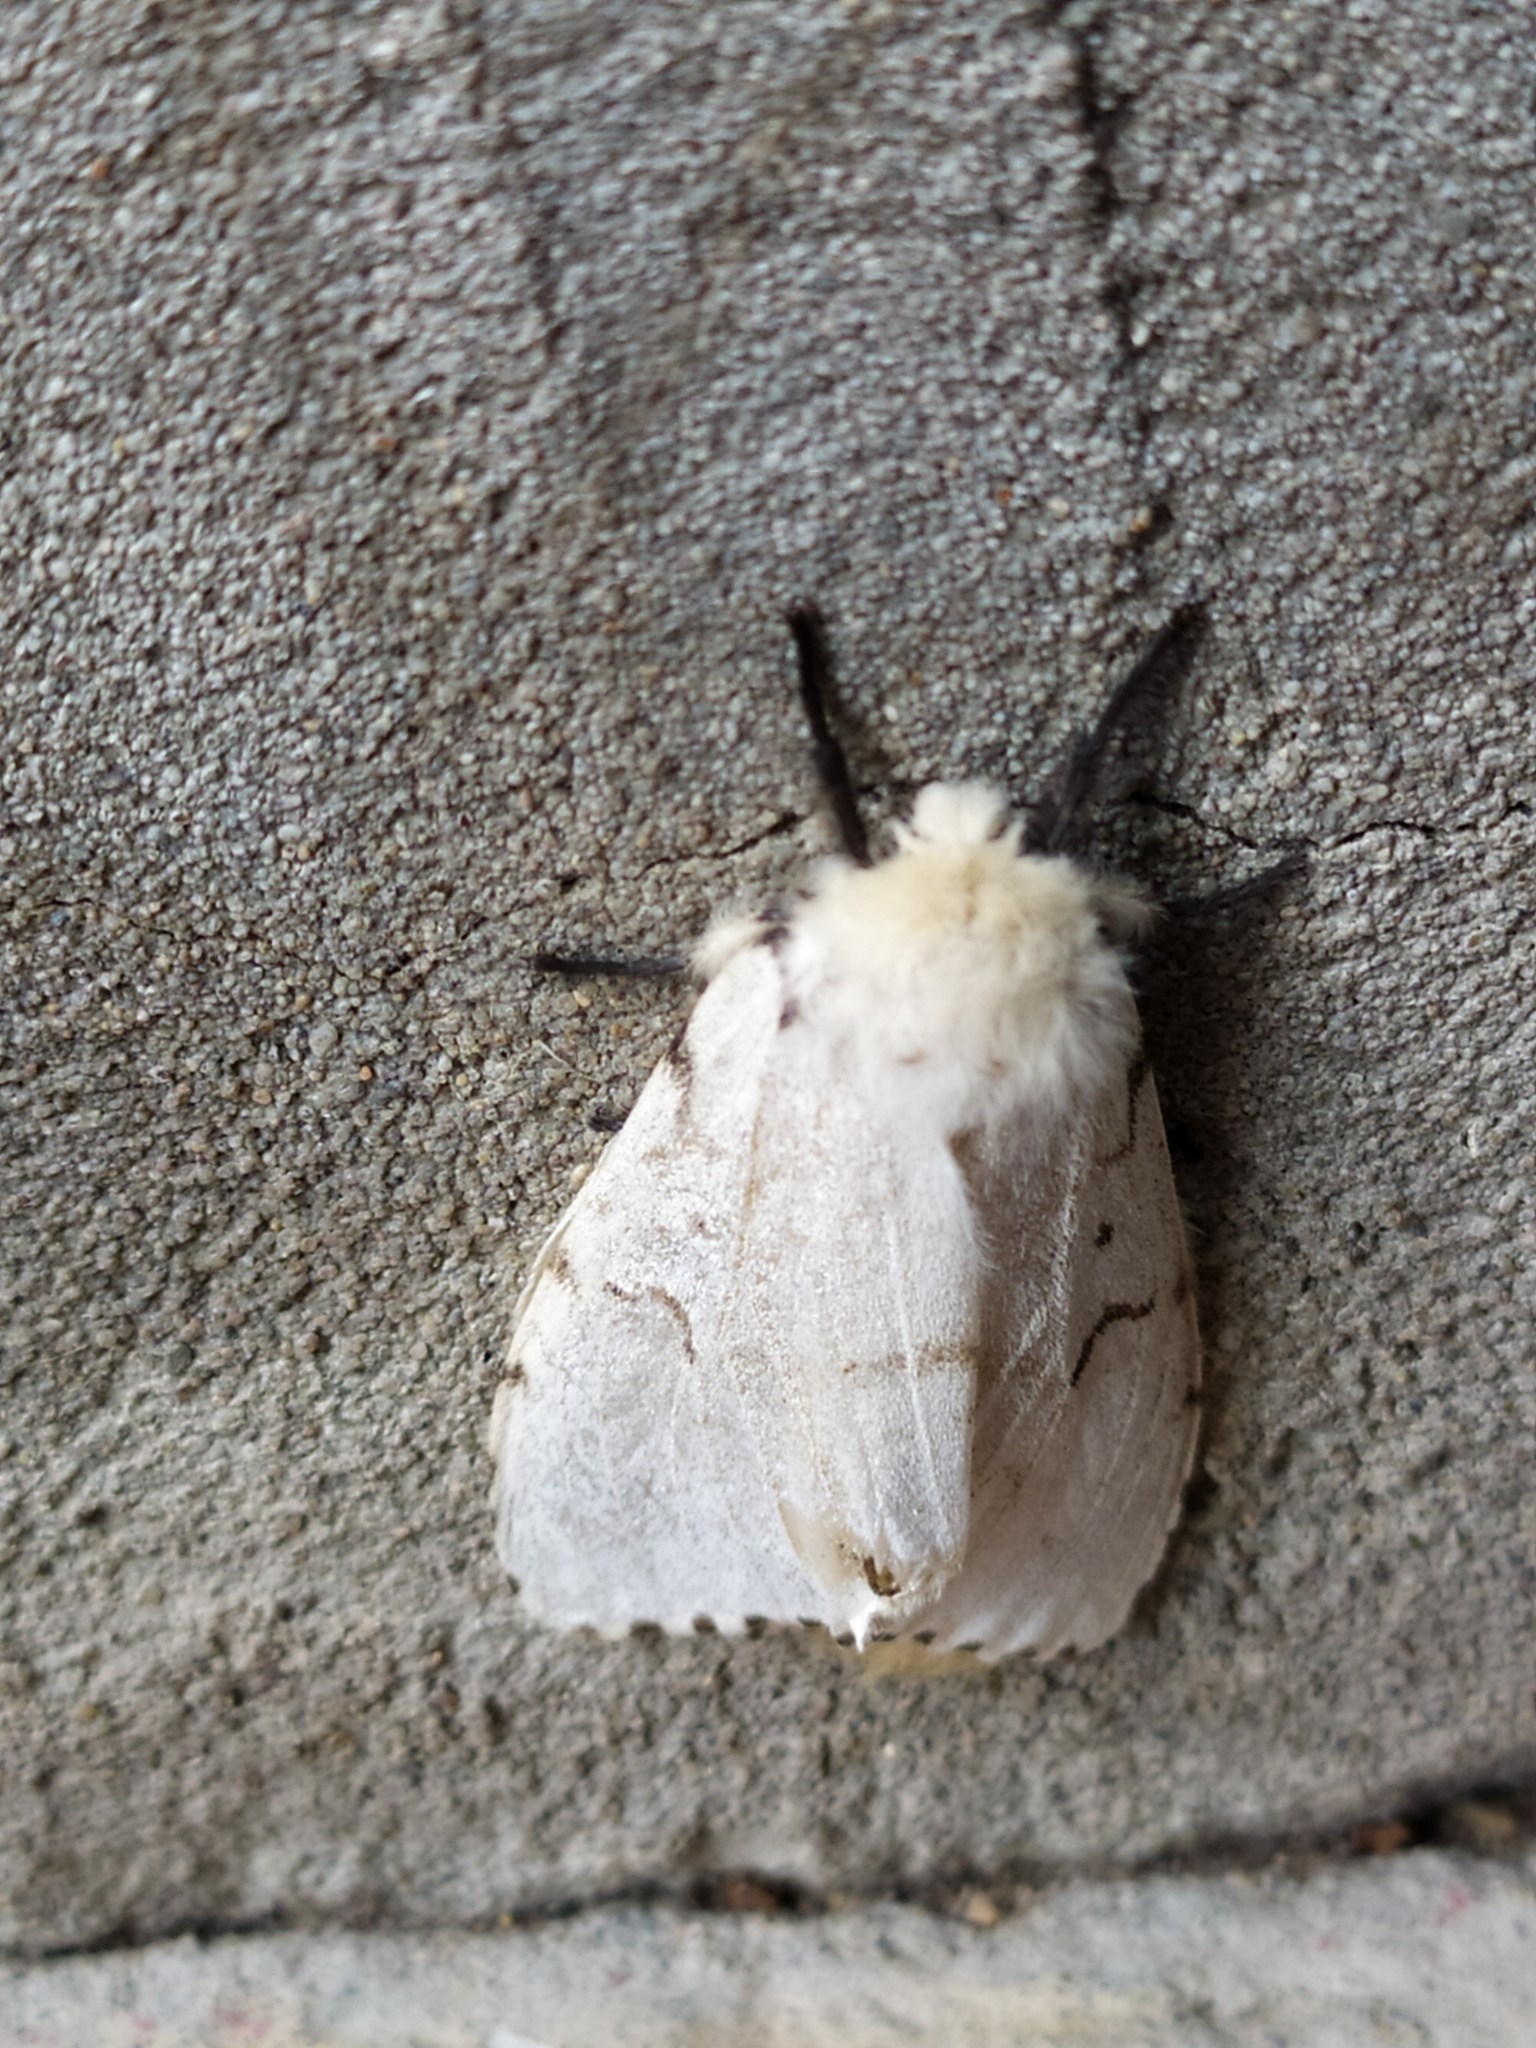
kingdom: Animalia
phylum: Arthropoda
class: Insecta
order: Lepidoptera
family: Erebidae
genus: Lymantria
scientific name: Lymantria dispar
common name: Gypsy moth
